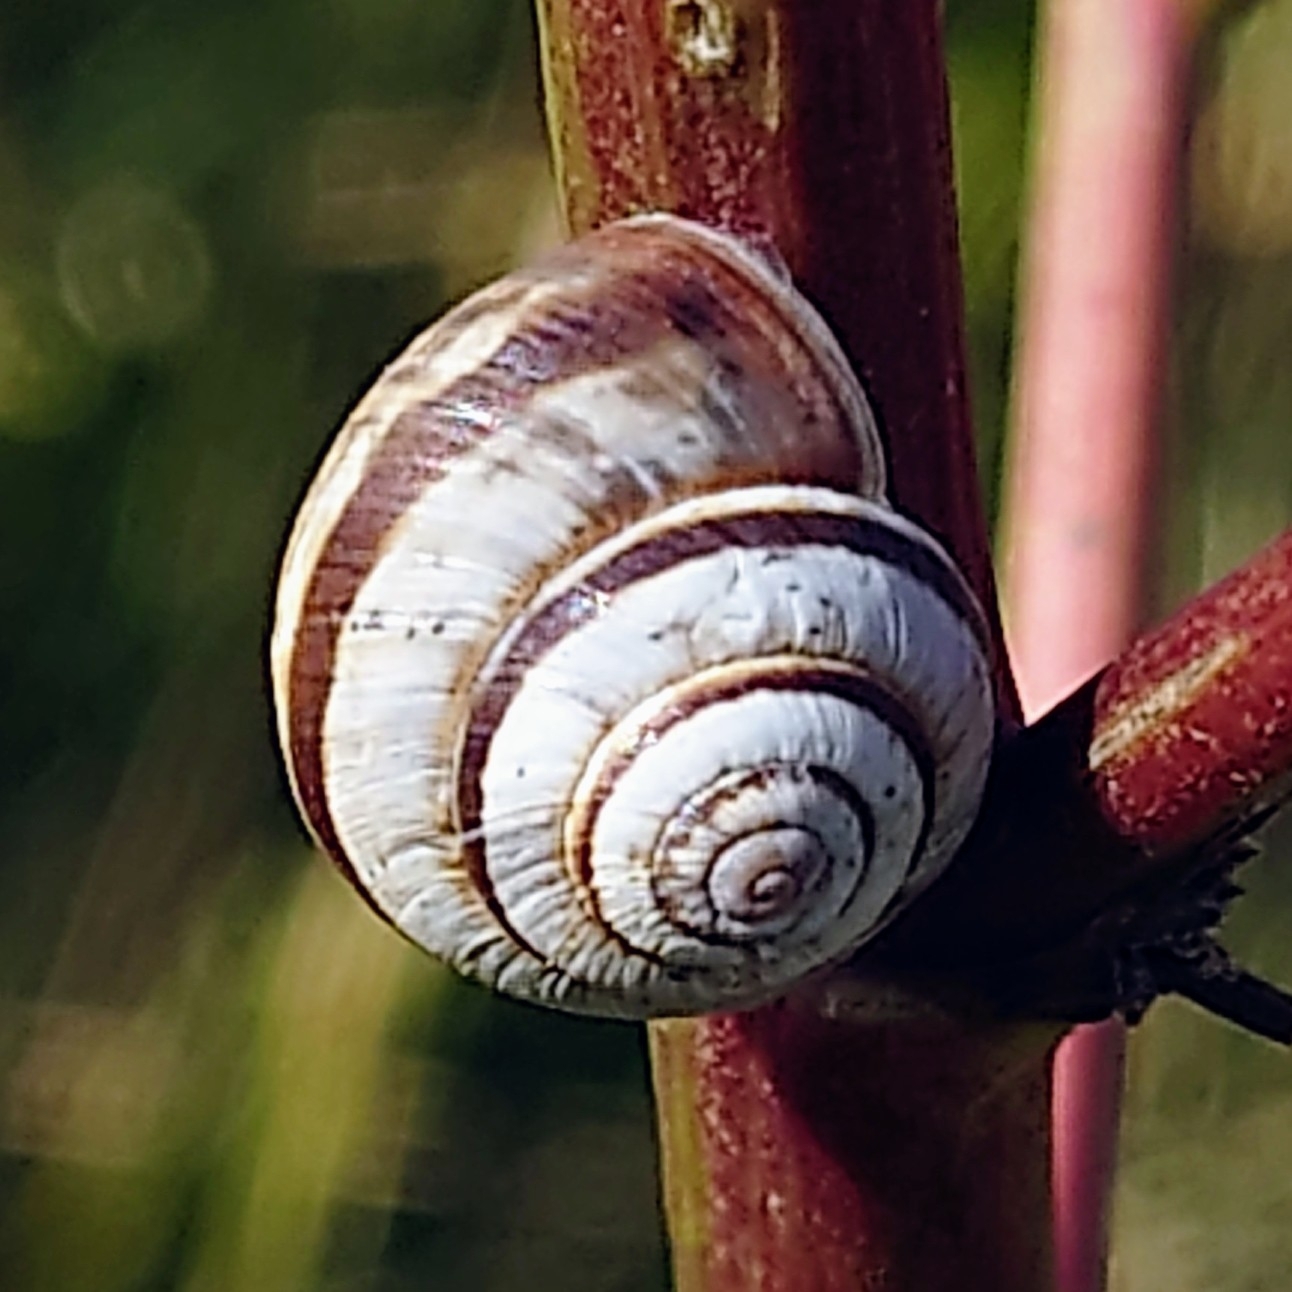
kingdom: Animalia
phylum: Mollusca
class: Gastropoda
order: Stylommatophora
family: Geomitridae
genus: Cernuella
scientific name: Cernuella virgata
